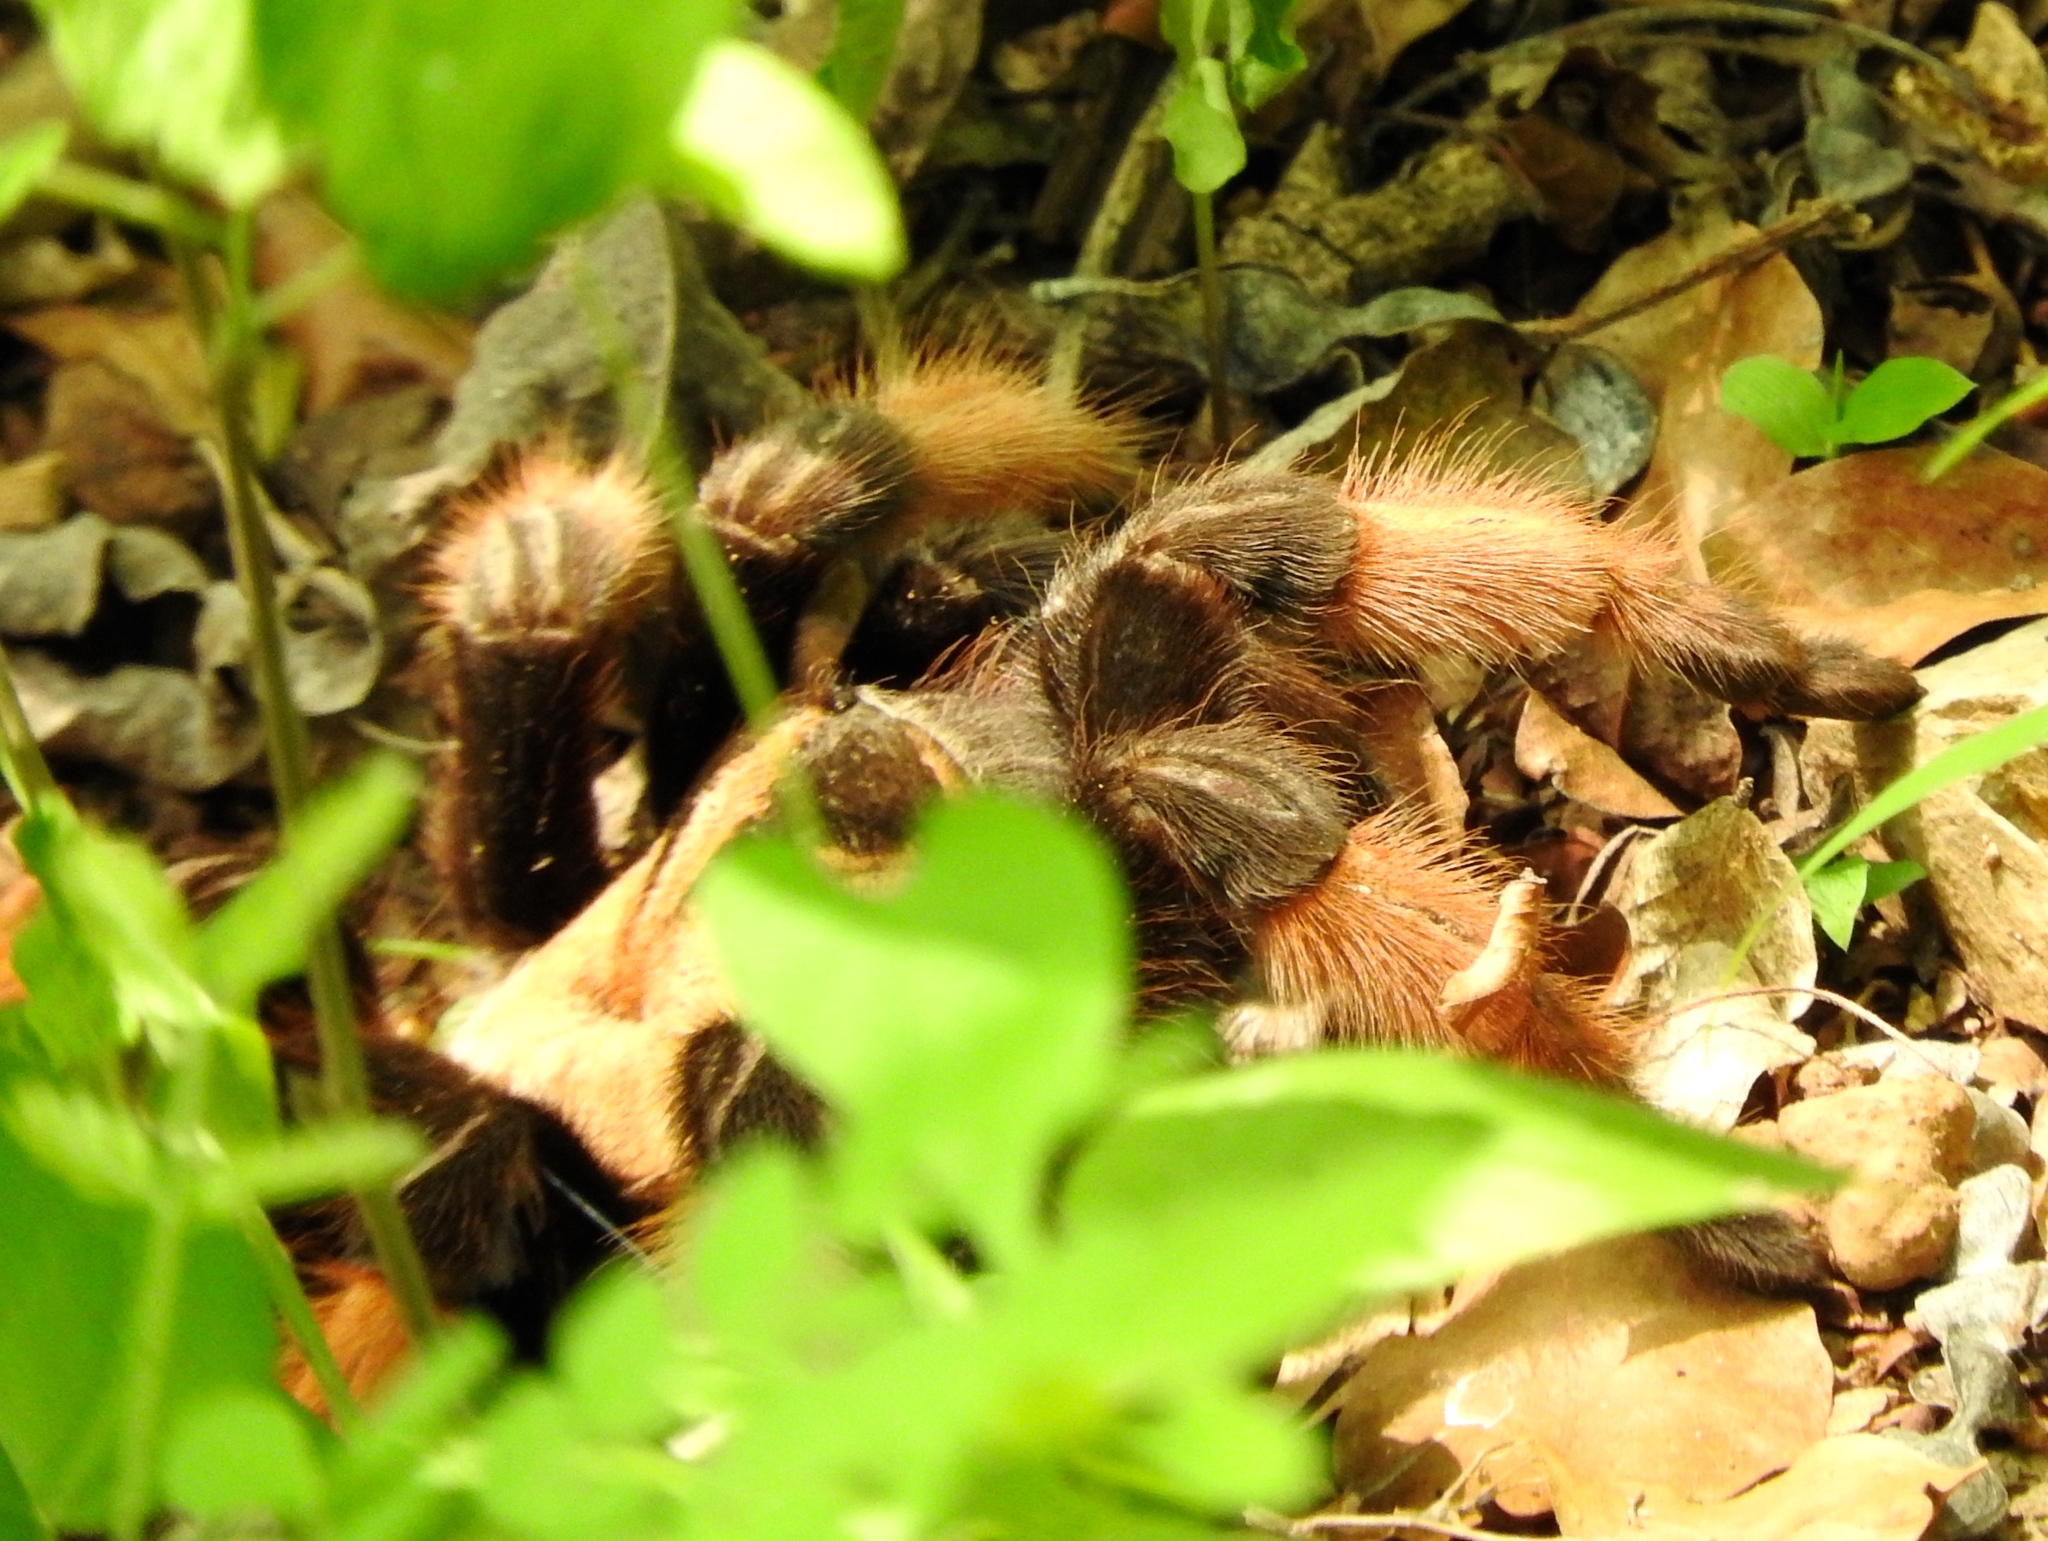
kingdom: Animalia
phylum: Arthropoda
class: Arachnida
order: Araneae
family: Theraphosidae
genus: Brachypelma
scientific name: Brachypelma emilia
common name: Mexican redleg
